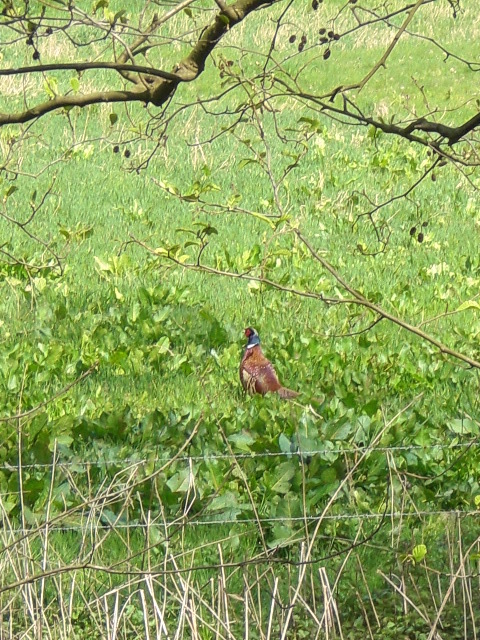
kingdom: Animalia
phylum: Chordata
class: Aves
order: Galliformes
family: Phasianidae
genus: Phasianus
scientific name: Phasianus colchicus
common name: Common pheasant
